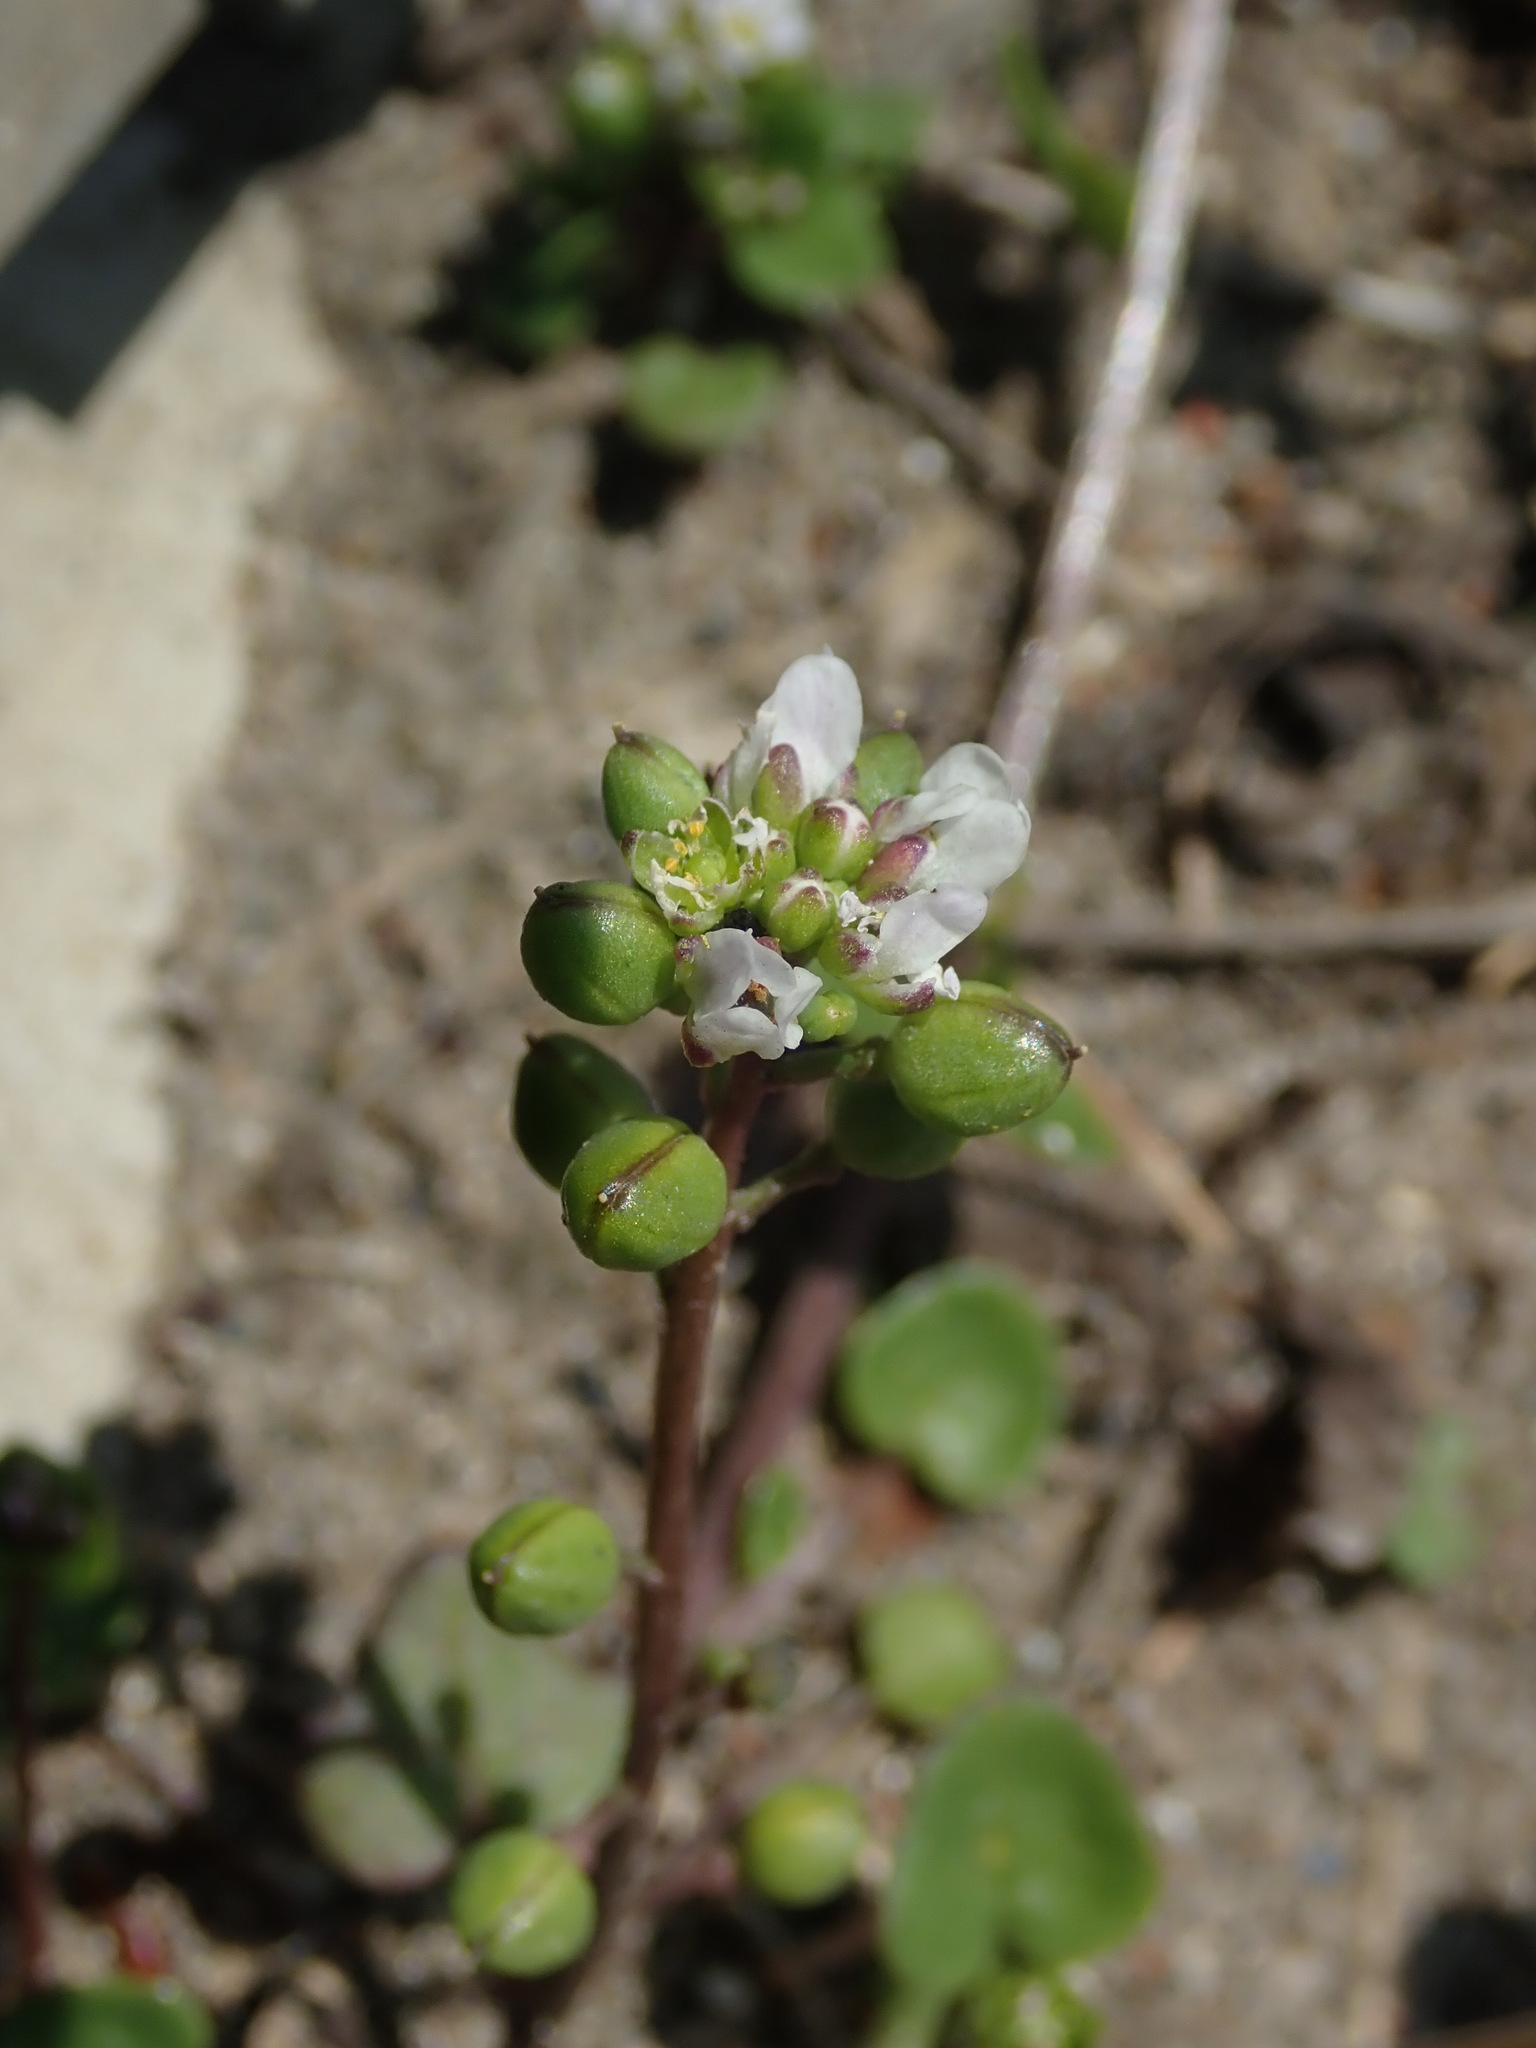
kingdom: Plantae
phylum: Tracheophyta
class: Magnoliopsida
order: Brassicales
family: Brassicaceae
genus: Cochlearia
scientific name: Cochlearia danica
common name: Early scurvygrass
